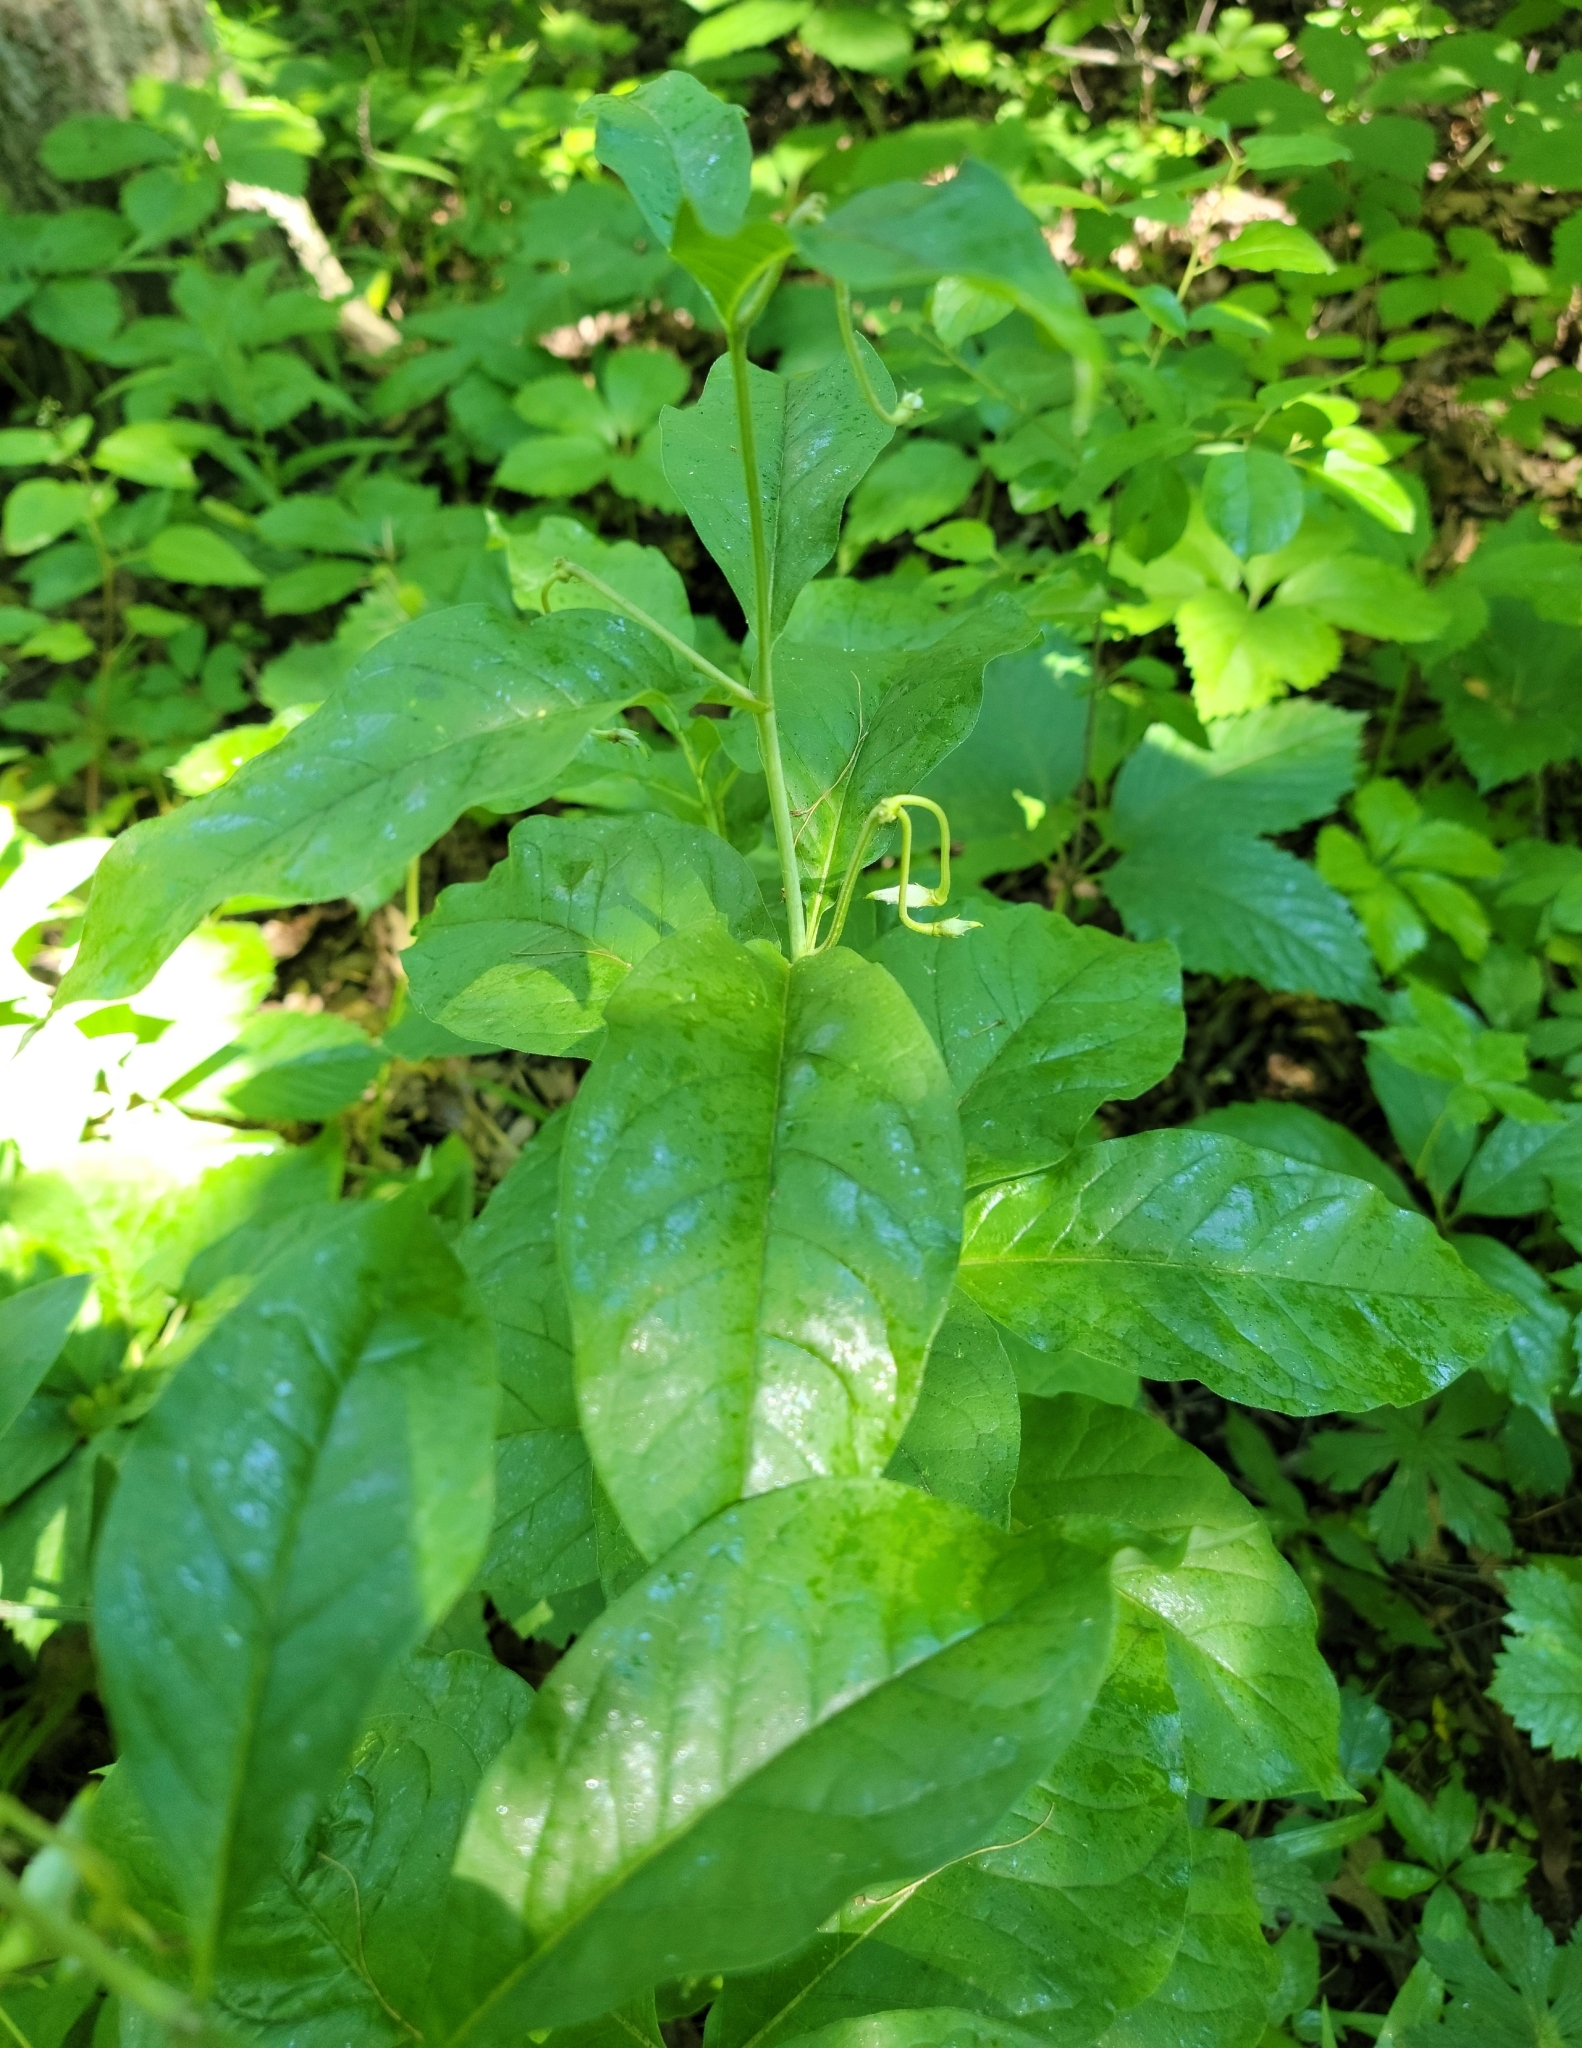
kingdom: Plantae
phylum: Tracheophyta
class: Magnoliopsida
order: Gentianales
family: Apocynaceae
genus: Asclepias
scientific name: Asclepias exaltata
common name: Poke milkweed
